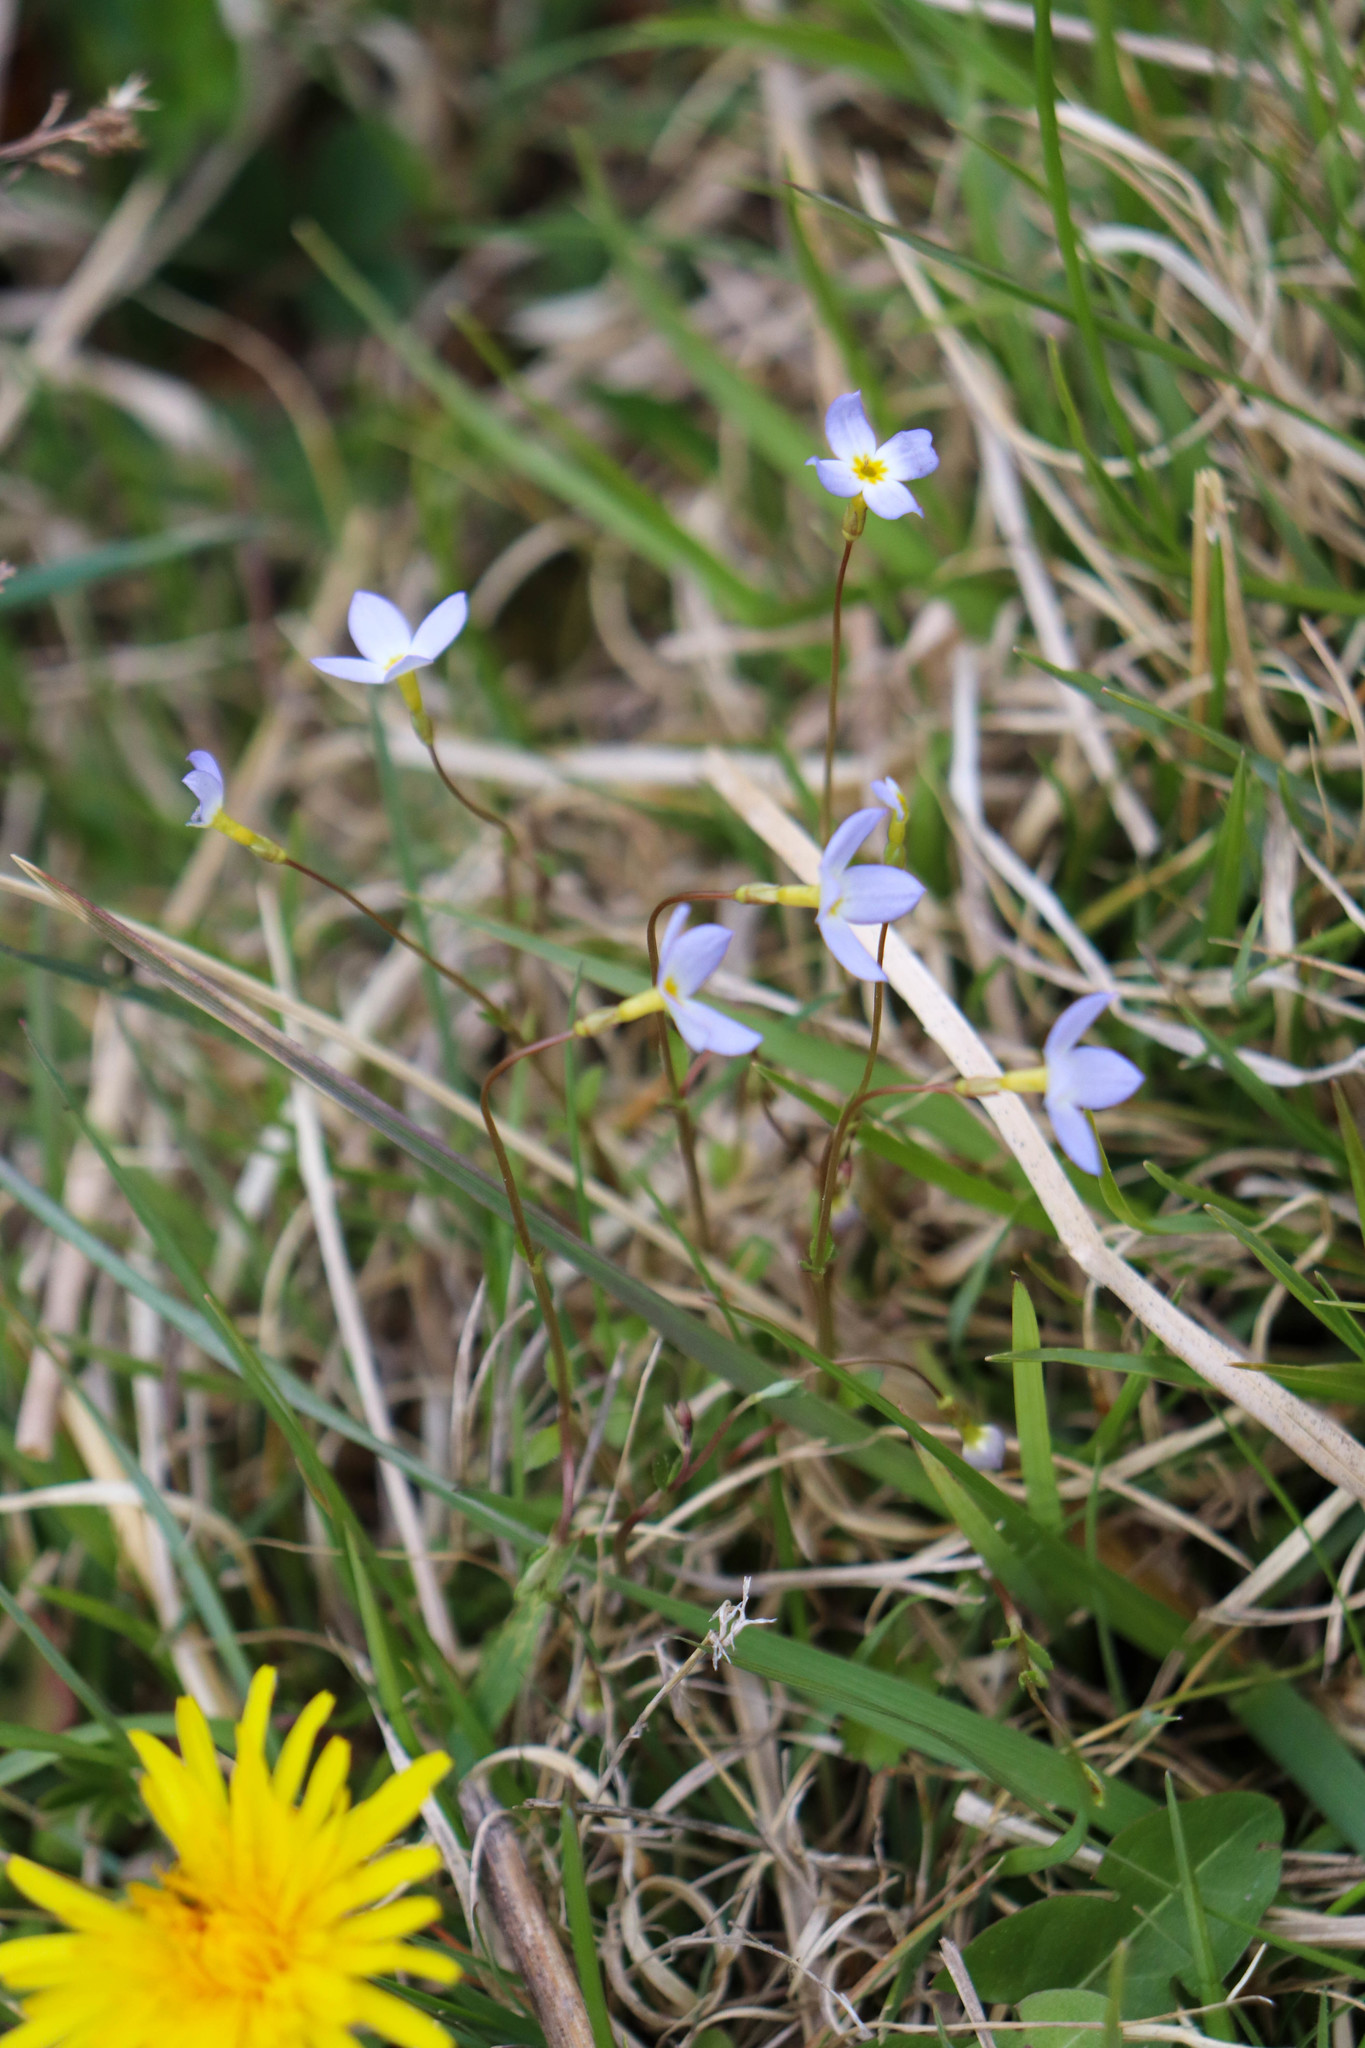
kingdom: Plantae
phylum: Tracheophyta
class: Magnoliopsida
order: Gentianales
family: Rubiaceae
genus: Houstonia
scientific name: Houstonia caerulea
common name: Bluets
